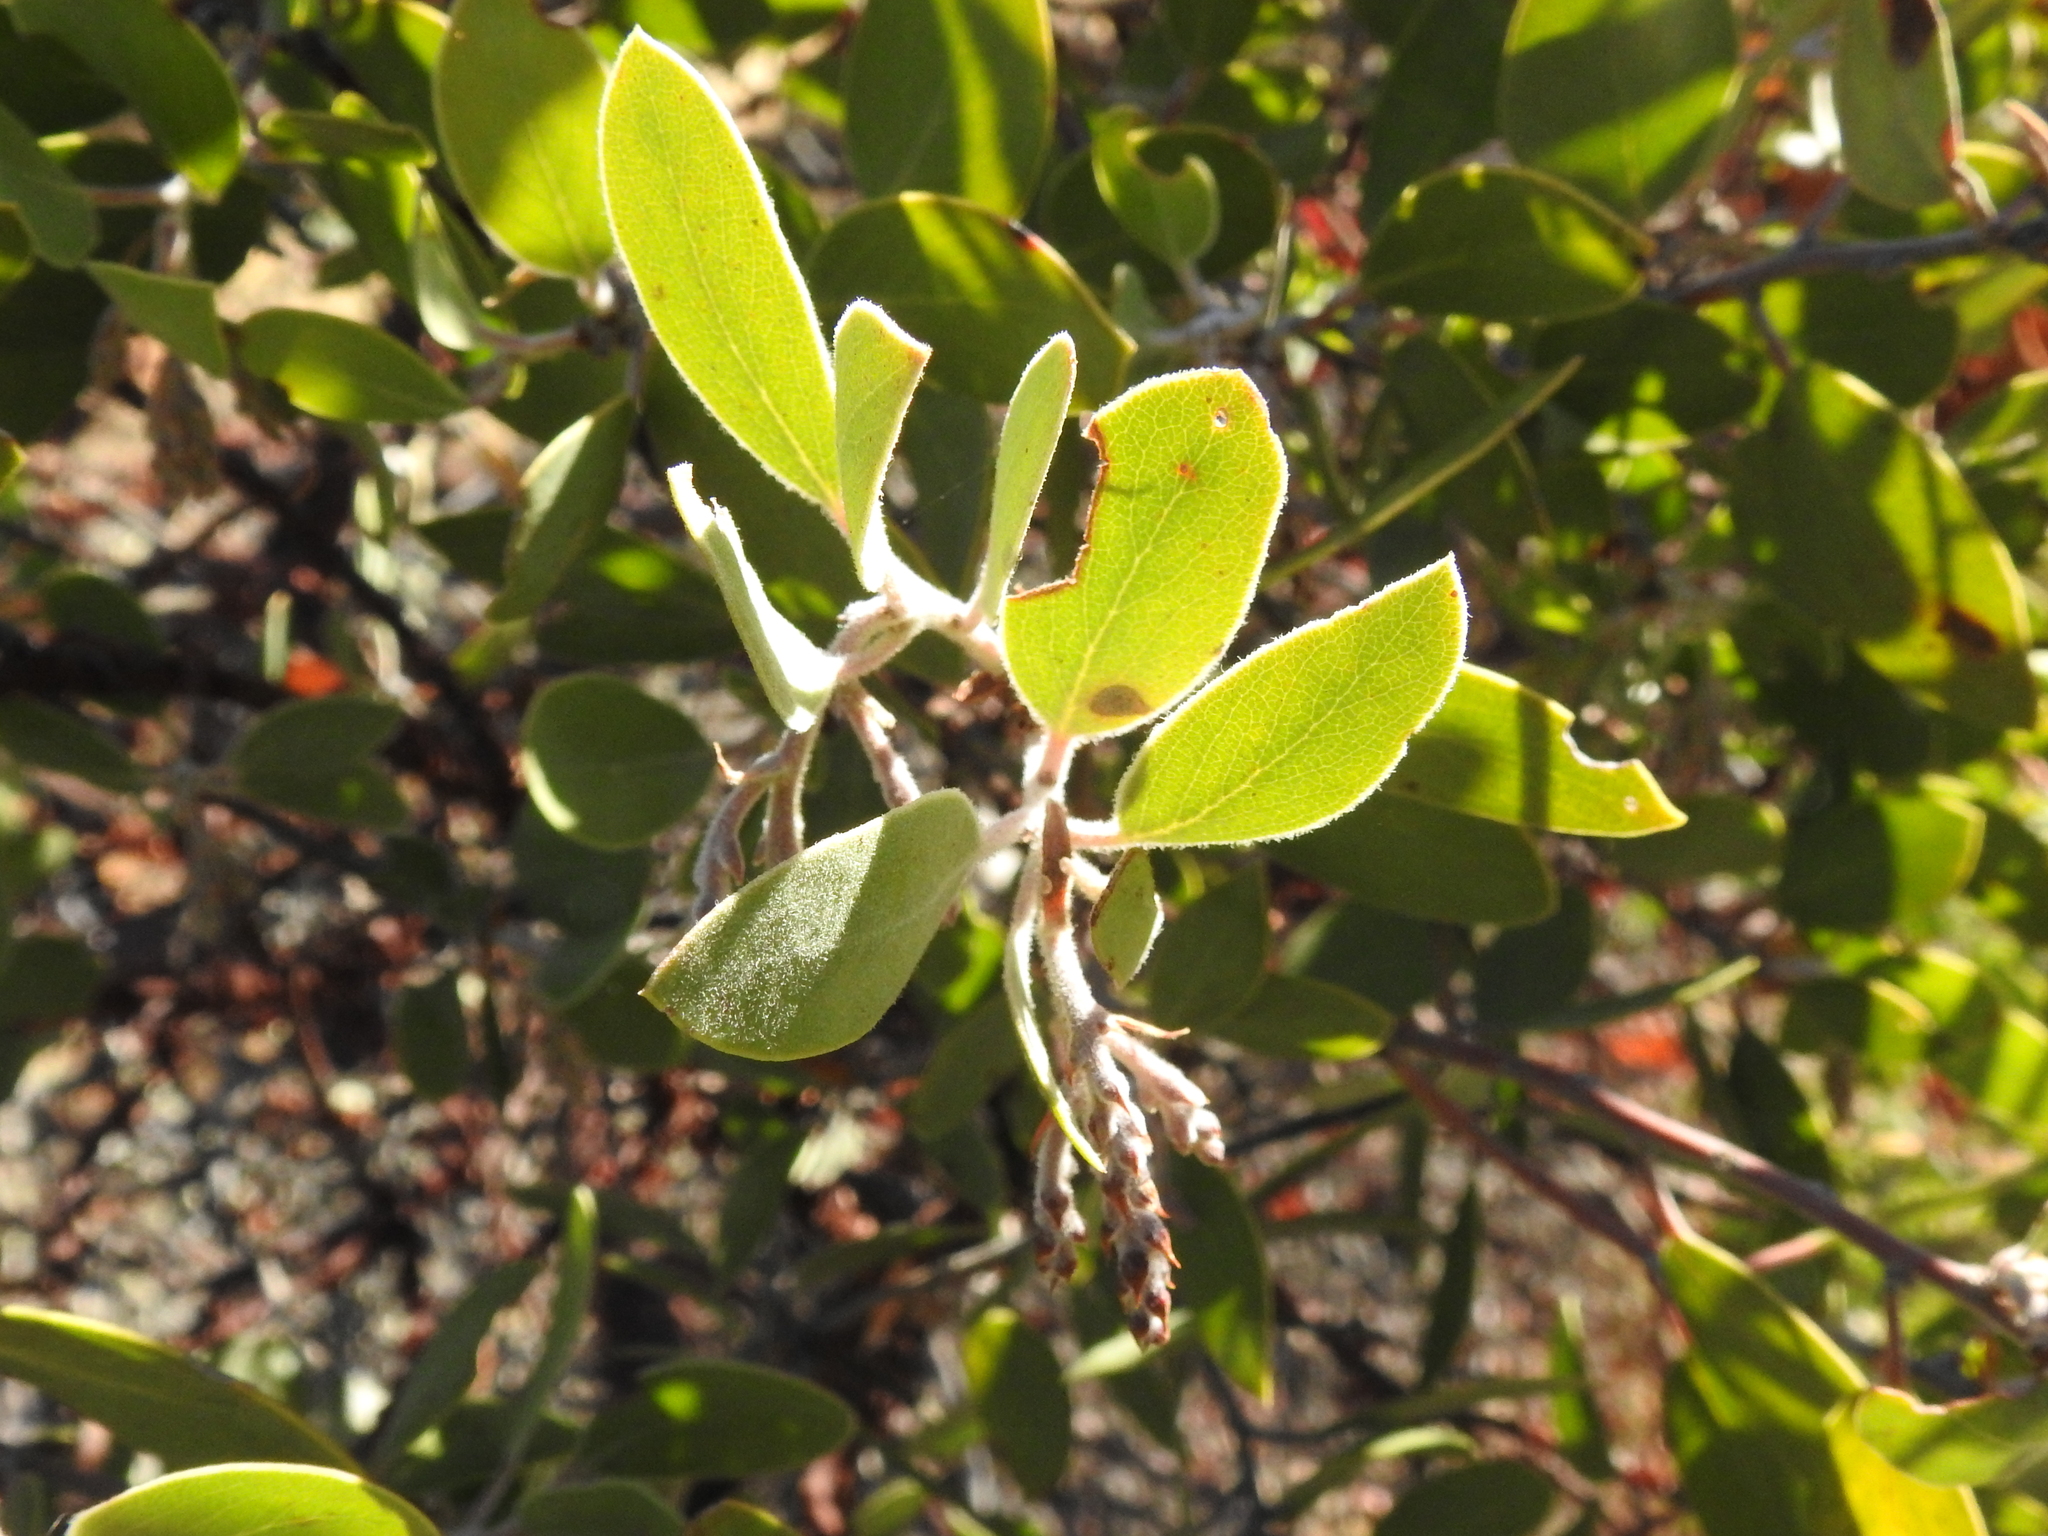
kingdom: Plantae
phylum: Tracheophyta
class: Magnoliopsida
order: Ericales
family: Ericaceae
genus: Arctostaphylos
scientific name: Arctostaphylos manzanita
